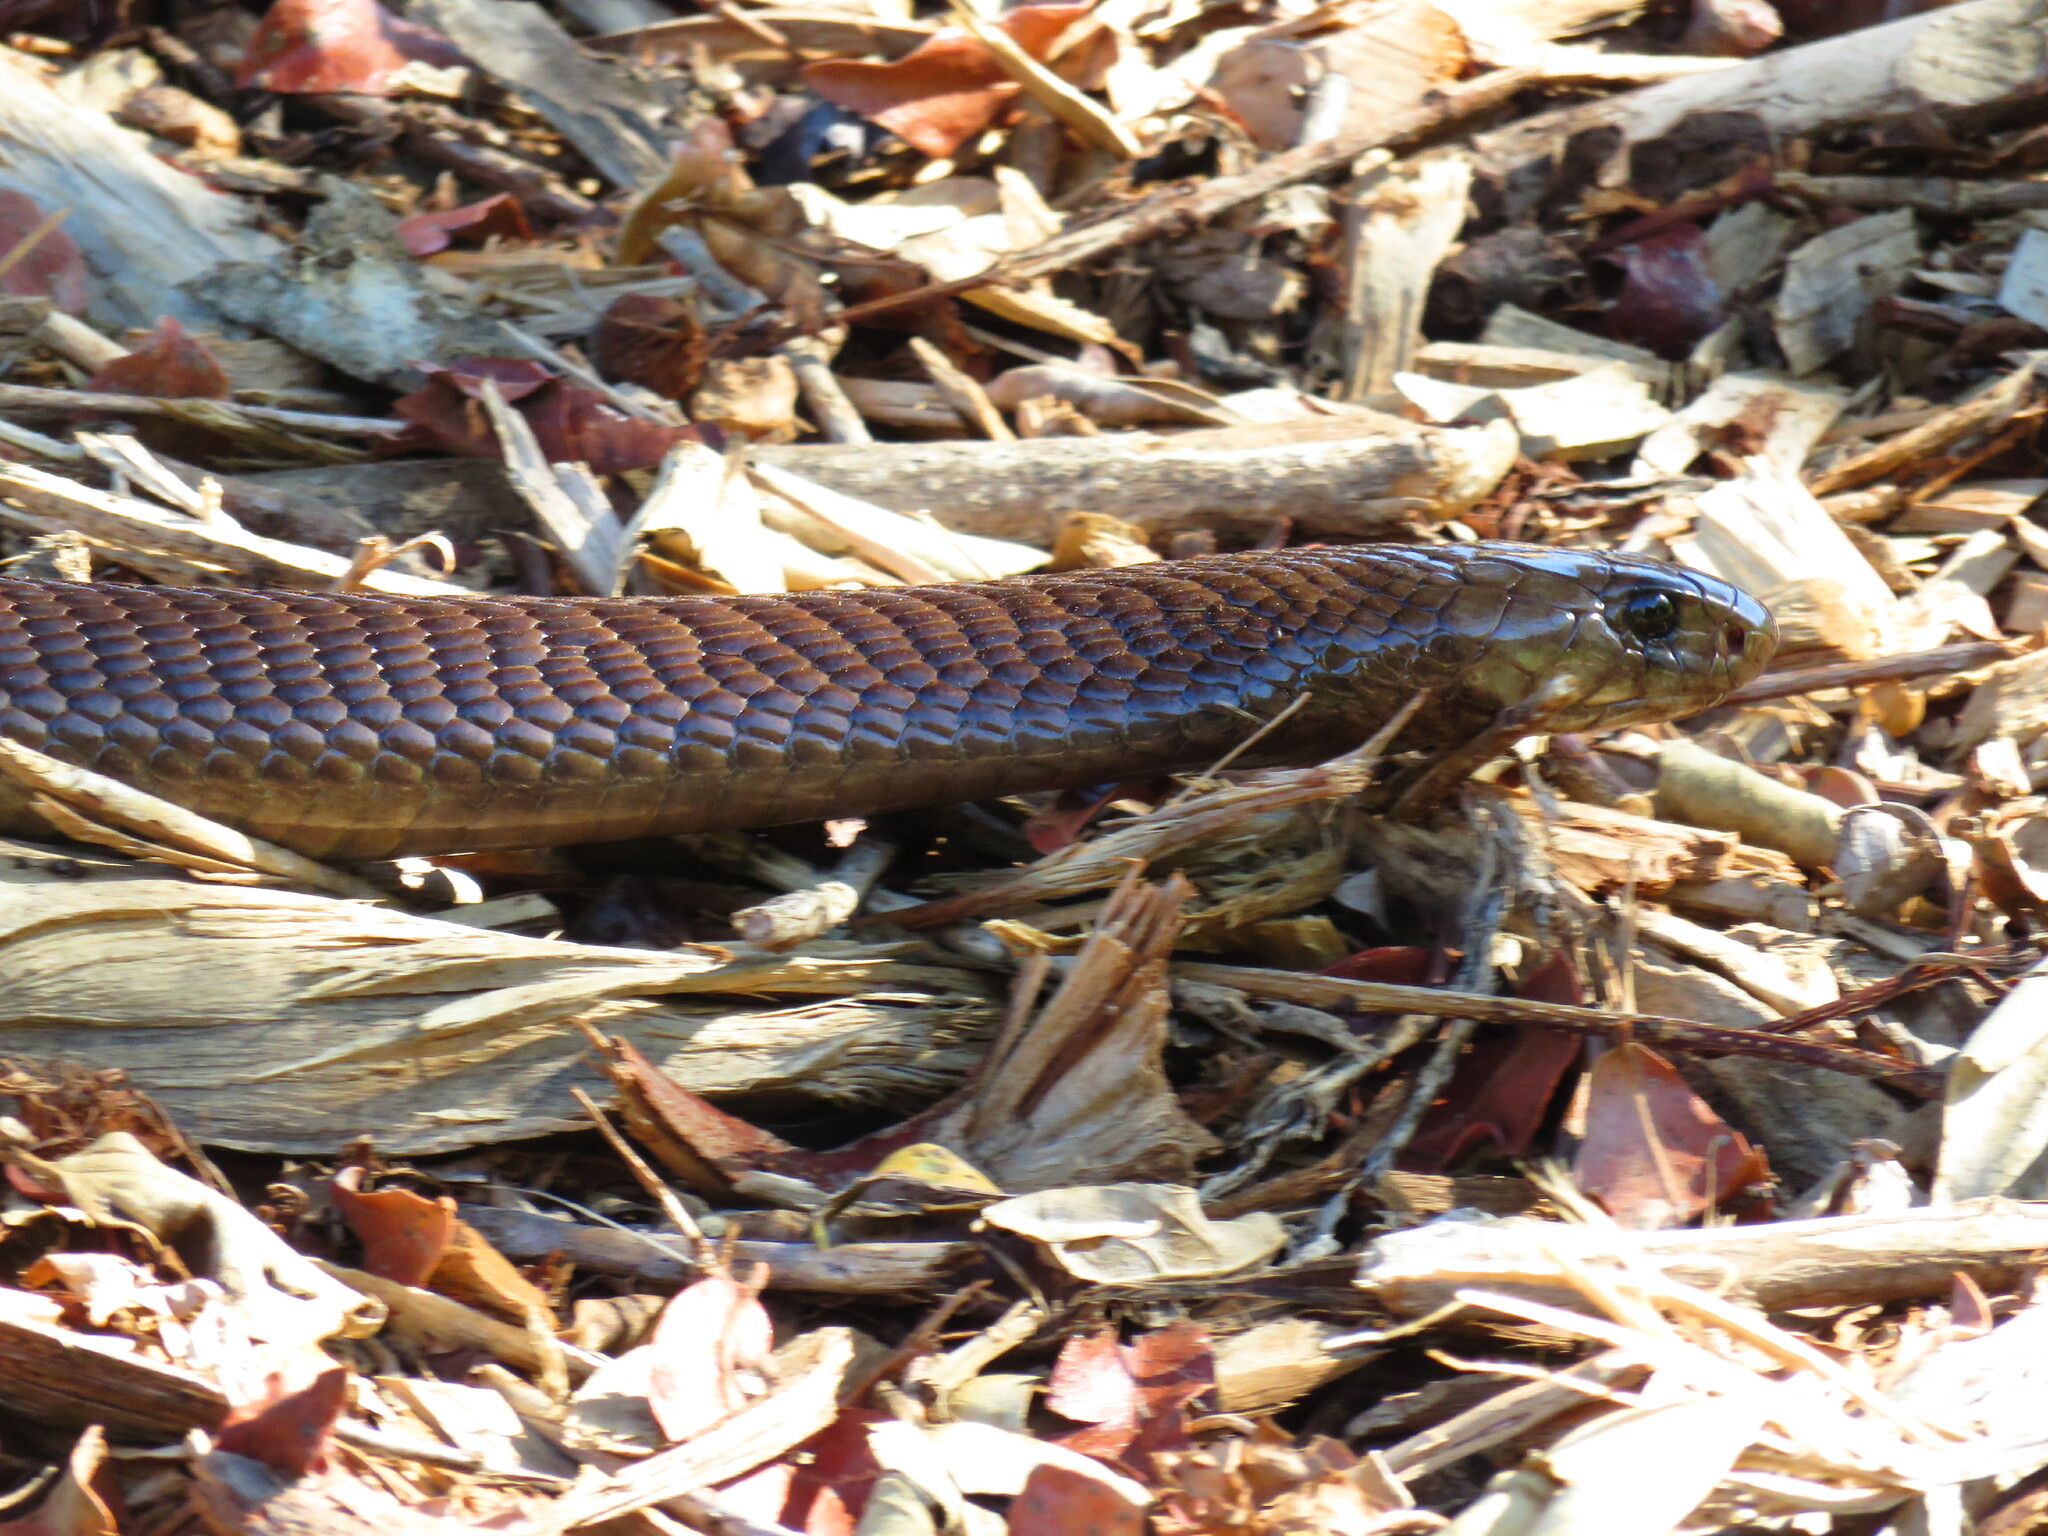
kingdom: Animalia
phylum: Chordata
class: Squamata
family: Elapidae
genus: Naja
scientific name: Naja nivea
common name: Cape cobra
